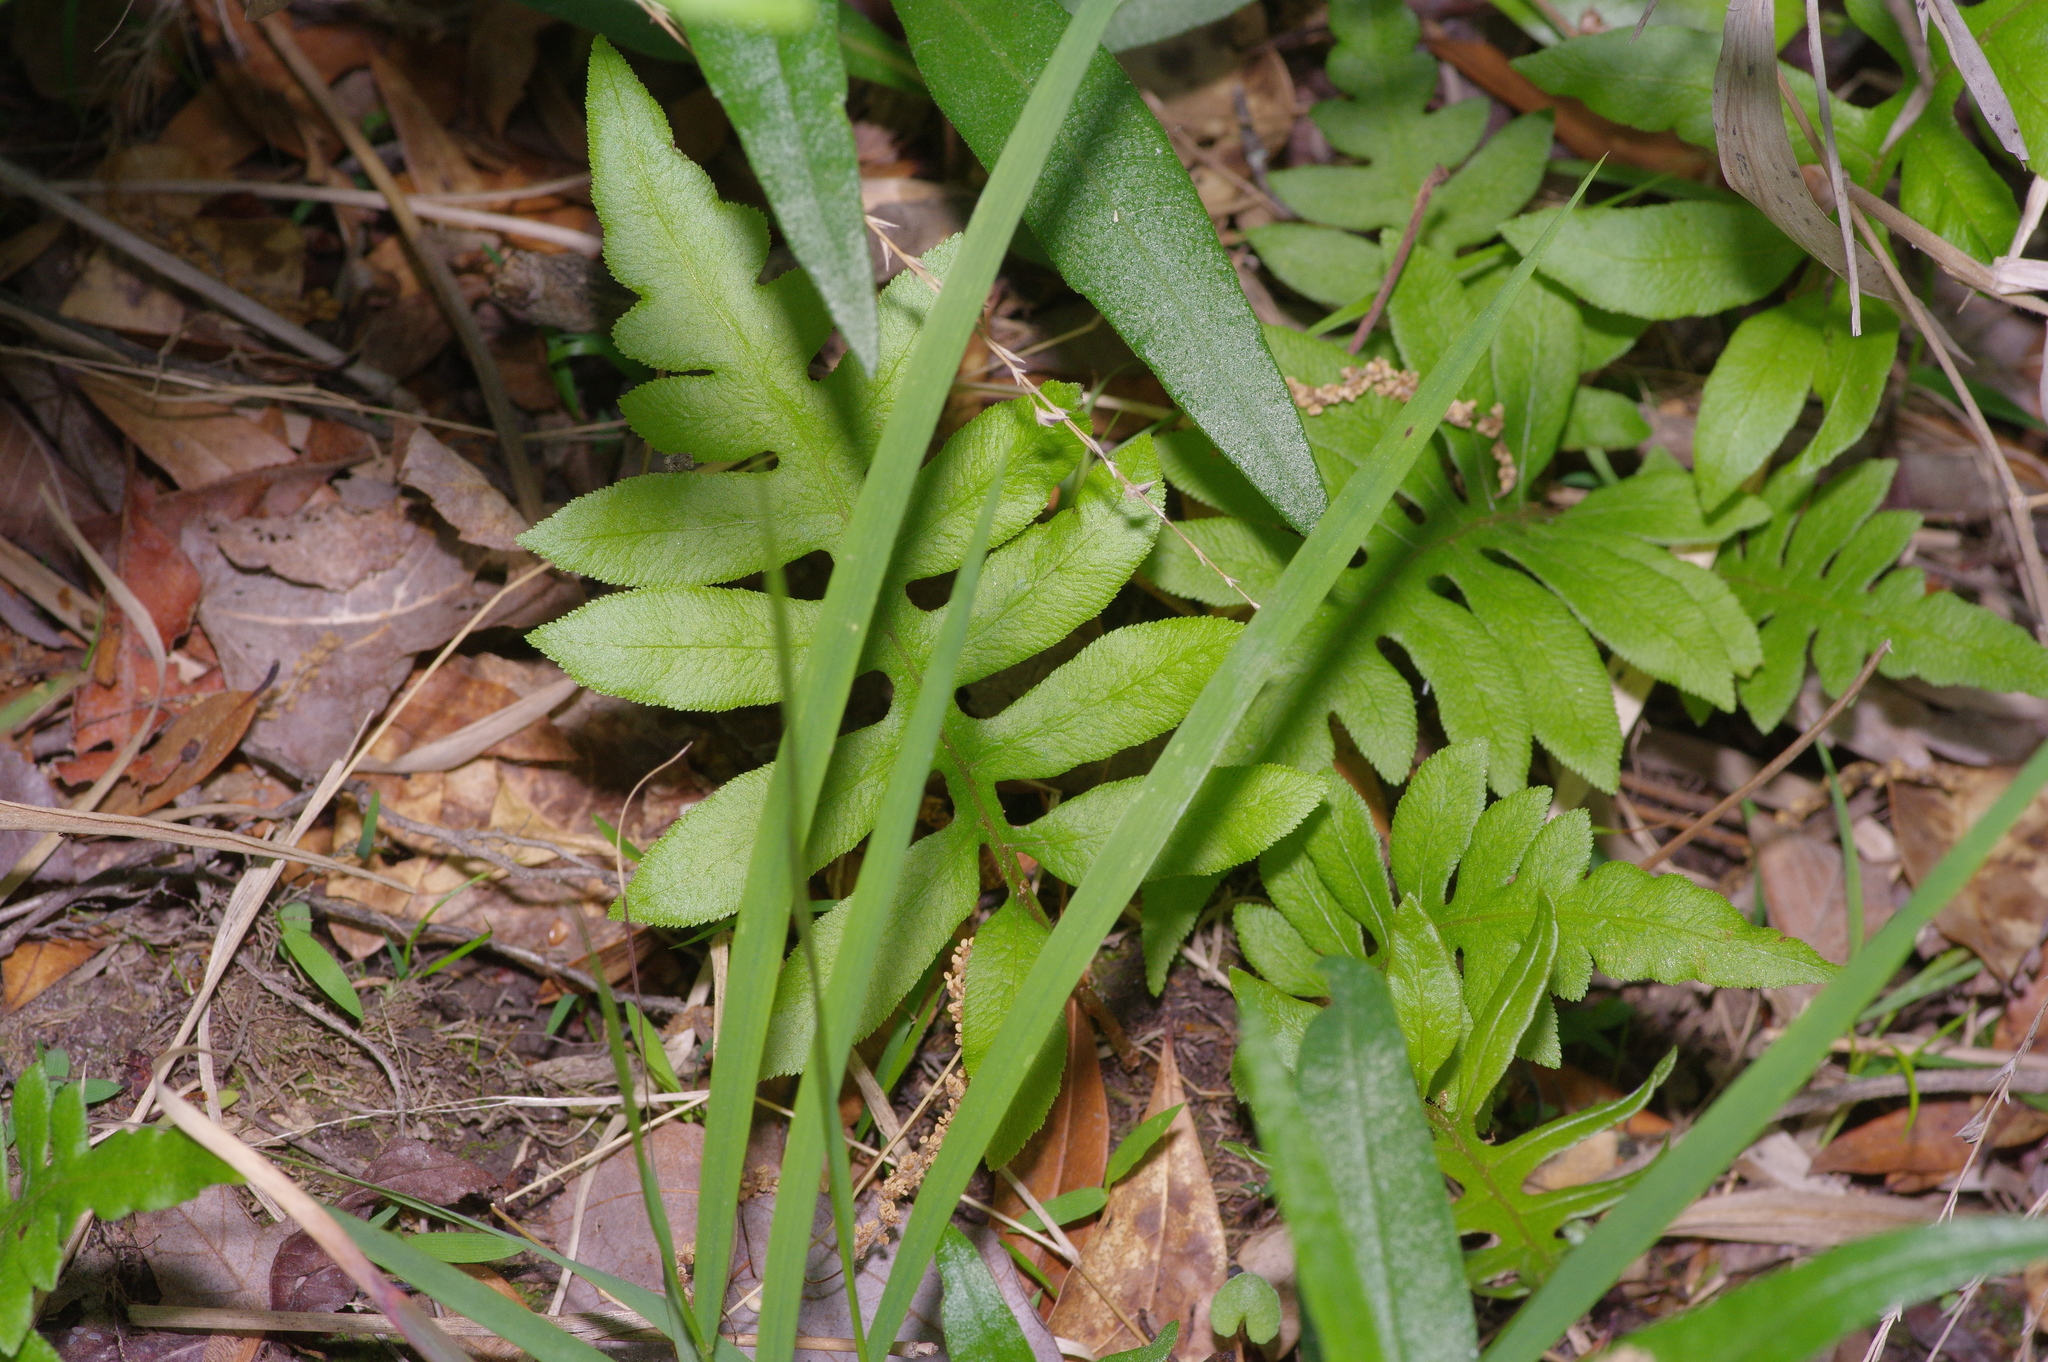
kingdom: Plantae
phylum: Tracheophyta
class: Polypodiopsida
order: Polypodiales
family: Blechnaceae
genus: Lorinseria
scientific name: Lorinseria areolata
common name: Dwarf chain fern
